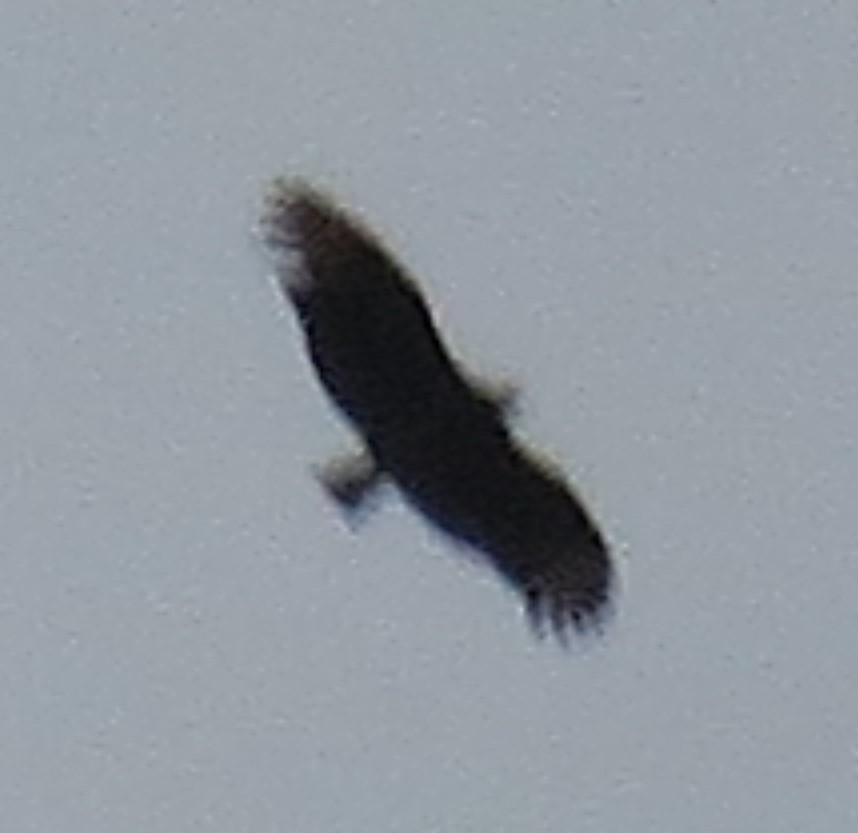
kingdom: Animalia
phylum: Chordata
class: Aves
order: Accipitriformes
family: Cathartidae
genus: Coragyps
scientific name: Coragyps atratus
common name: Black vulture
